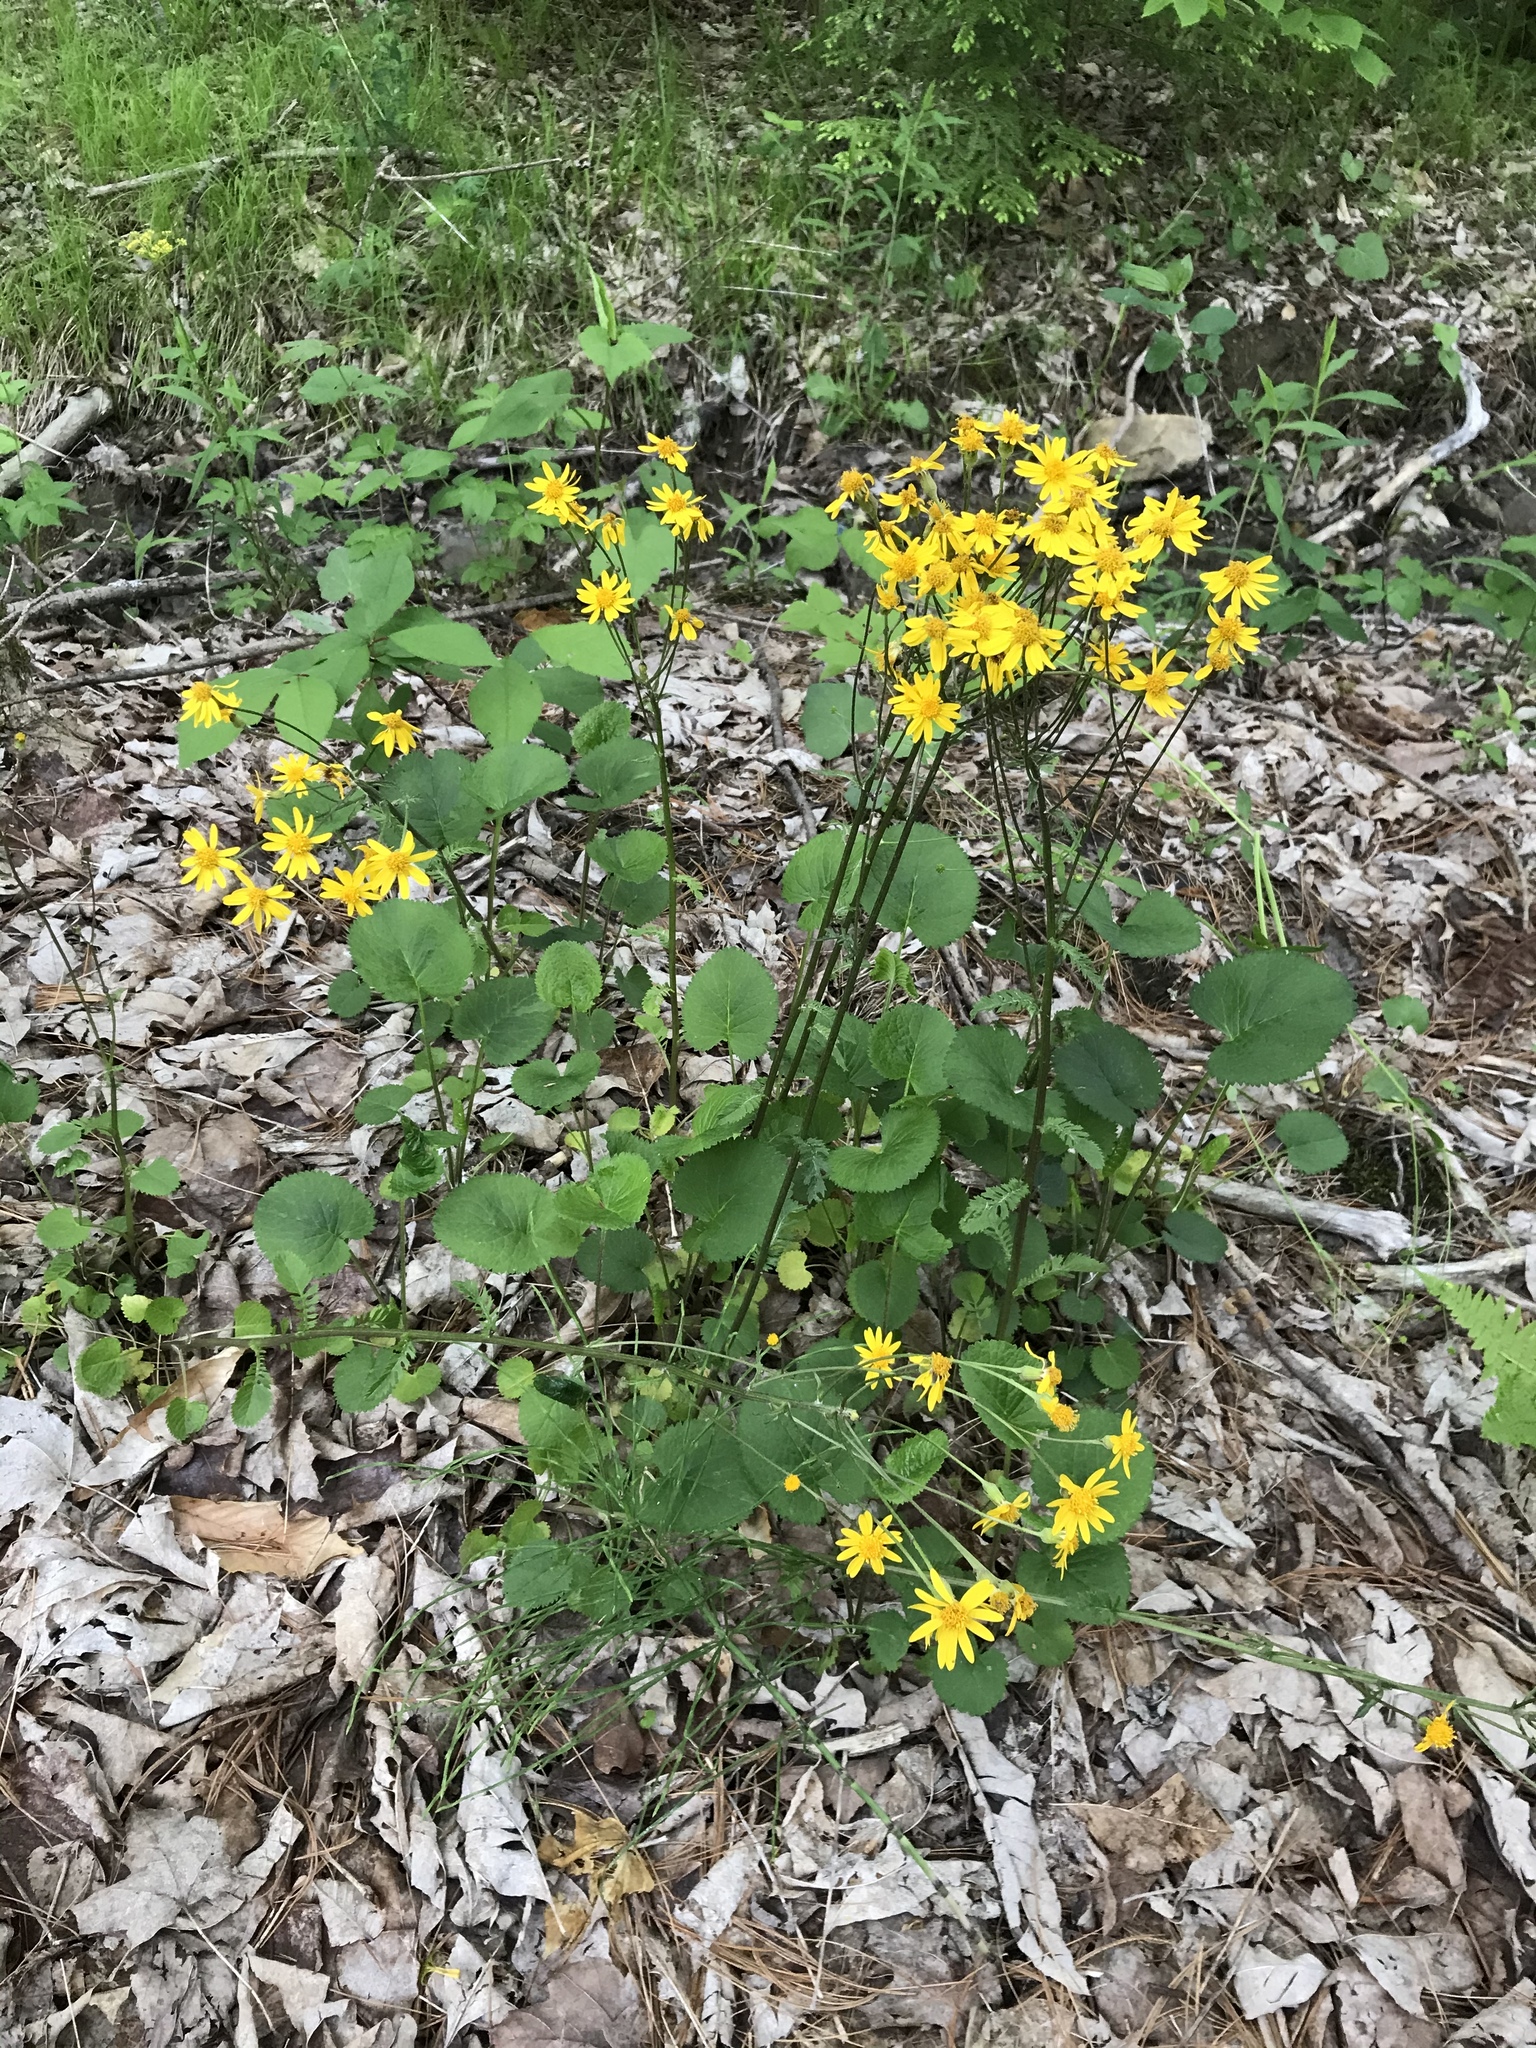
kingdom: Plantae
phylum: Tracheophyta
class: Magnoliopsida
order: Asterales
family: Asteraceae
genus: Packera
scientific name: Packera aurea
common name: Golden groundsel
